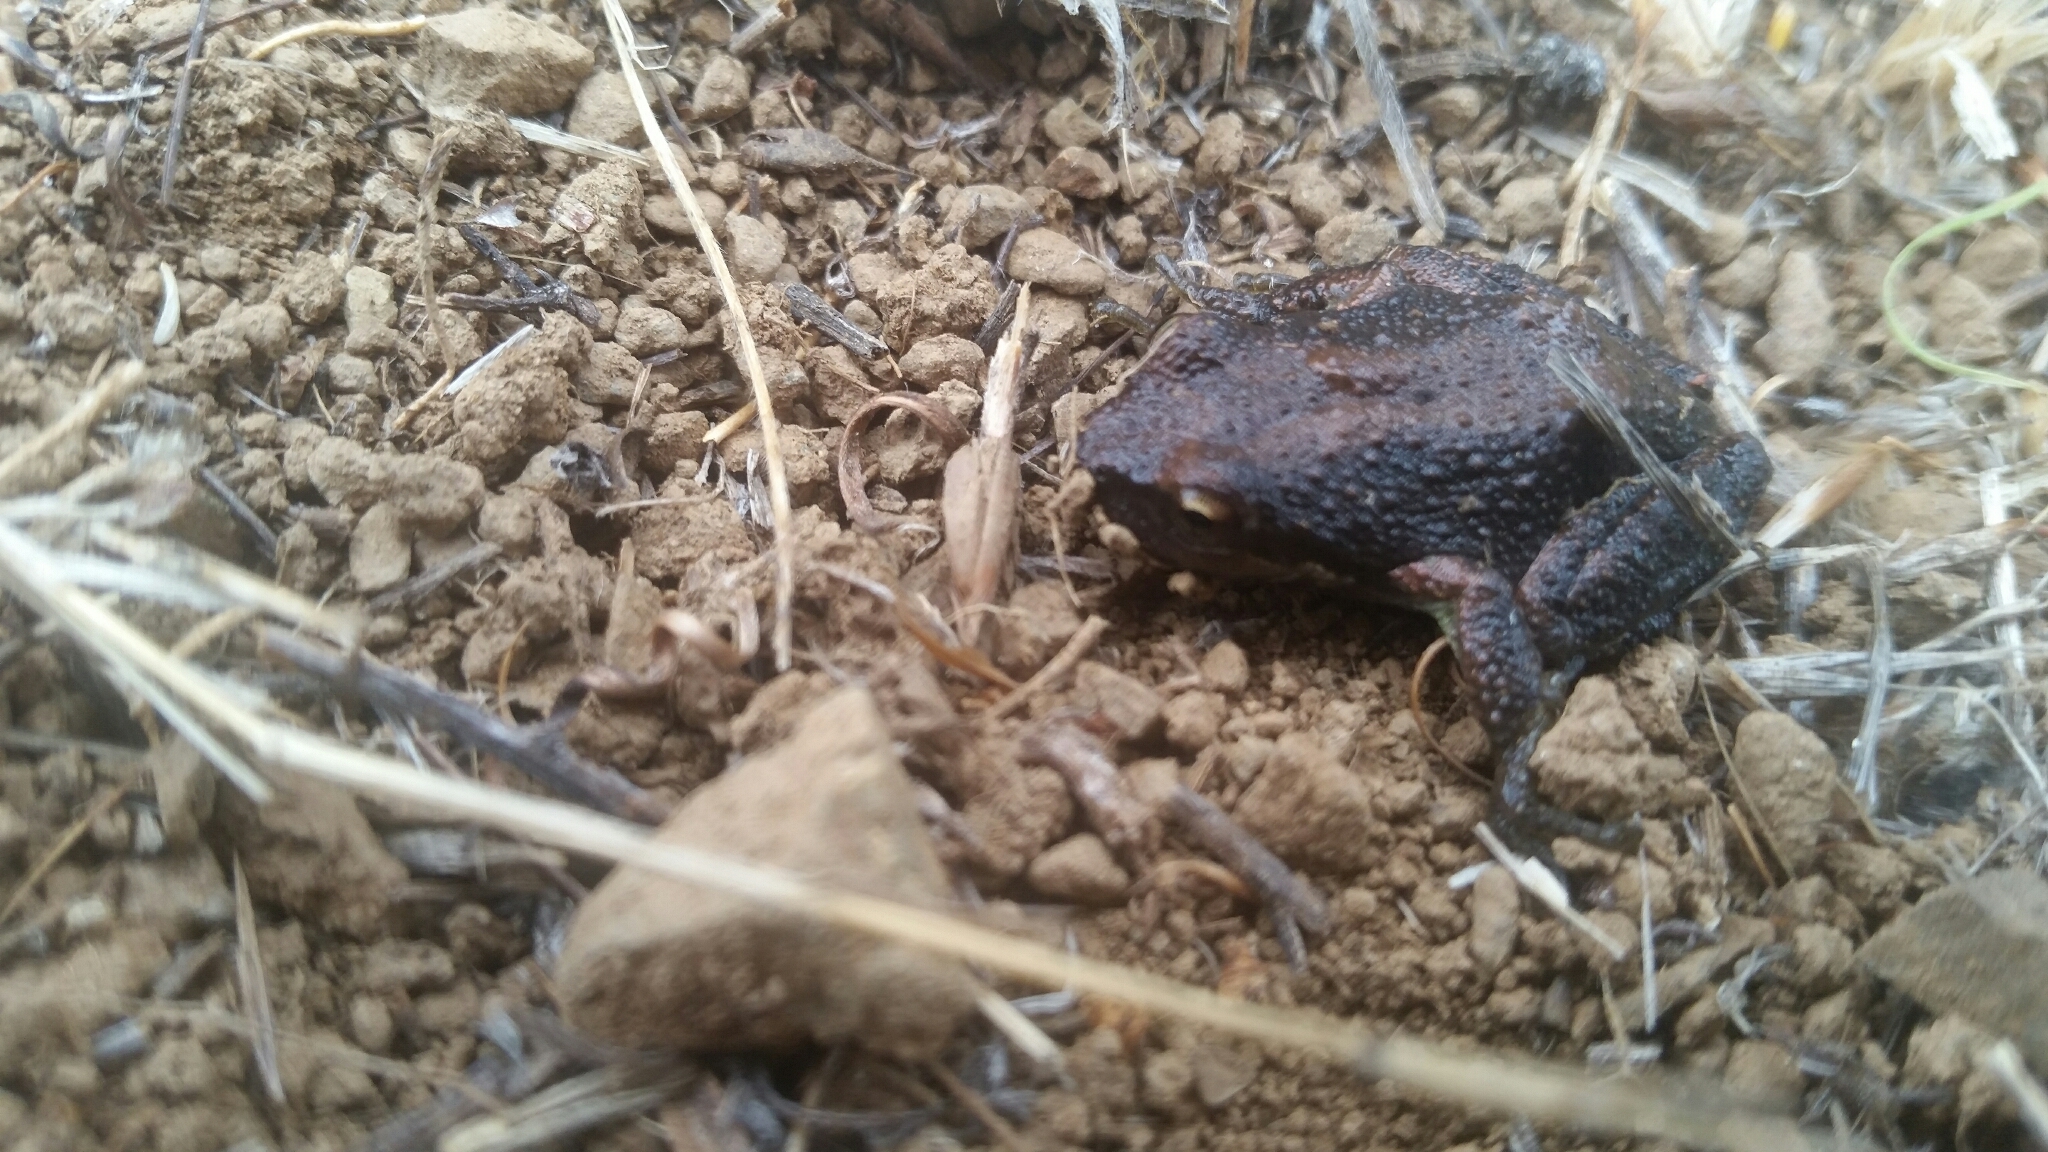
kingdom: Animalia
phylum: Chordata
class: Amphibia
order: Anura
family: Hylidae
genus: Pseudacris
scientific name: Pseudacris regilla
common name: Pacific chorus frog
